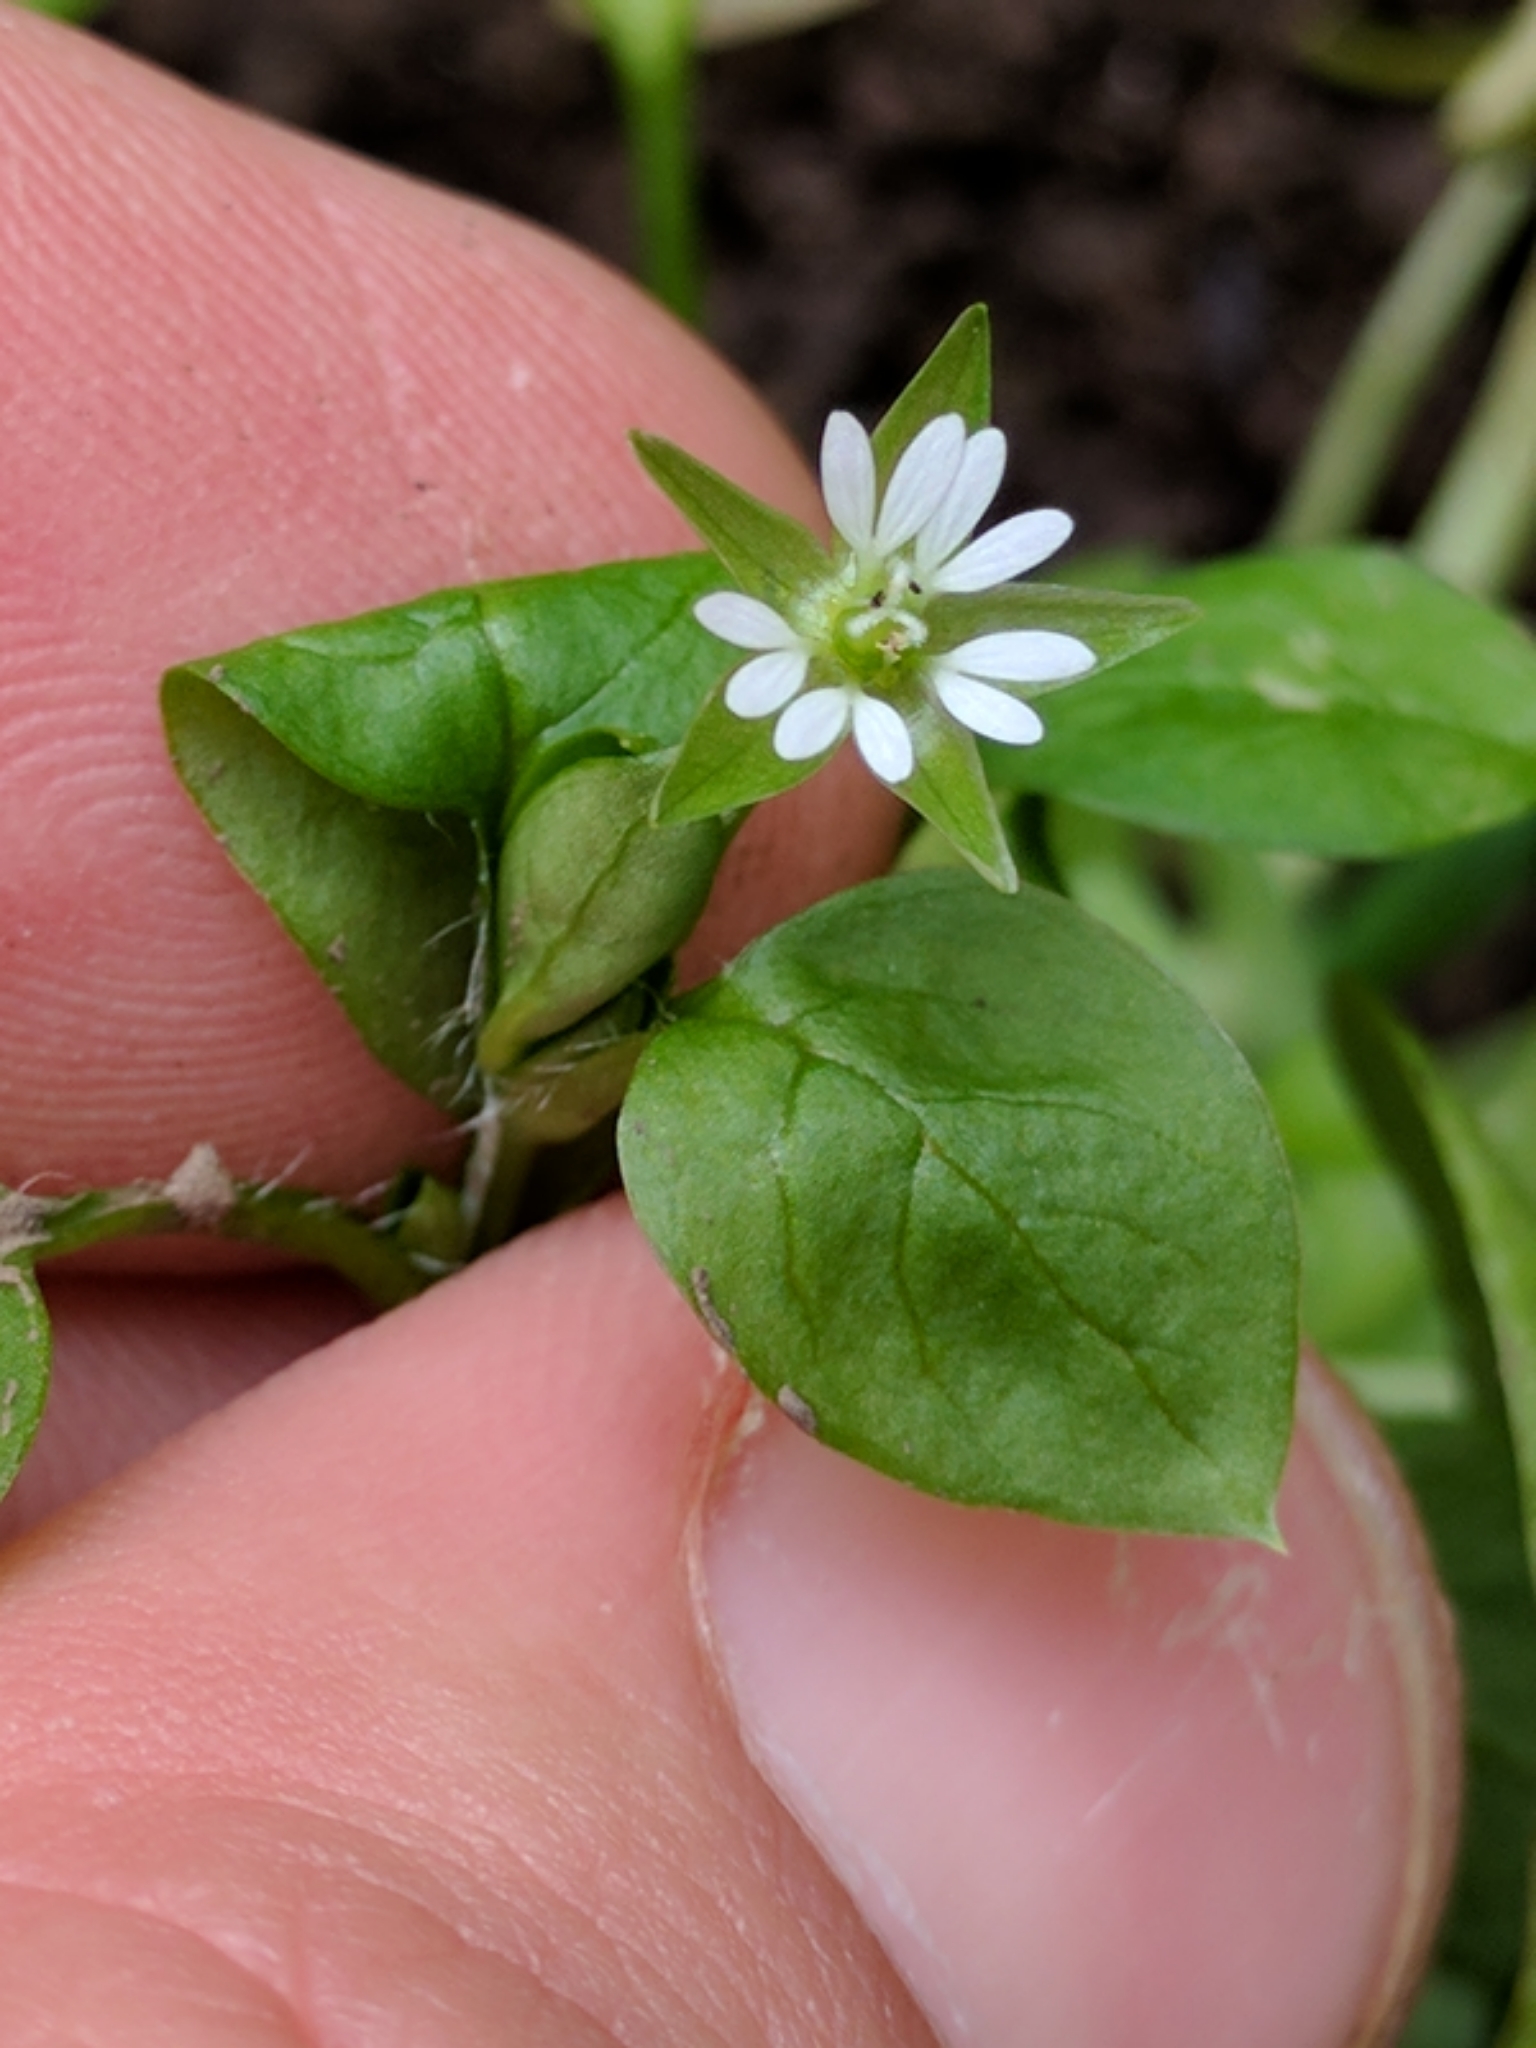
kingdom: Plantae
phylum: Tracheophyta
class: Magnoliopsida
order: Caryophyllales
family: Caryophyllaceae
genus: Stellaria
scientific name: Stellaria media
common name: Common chickweed
